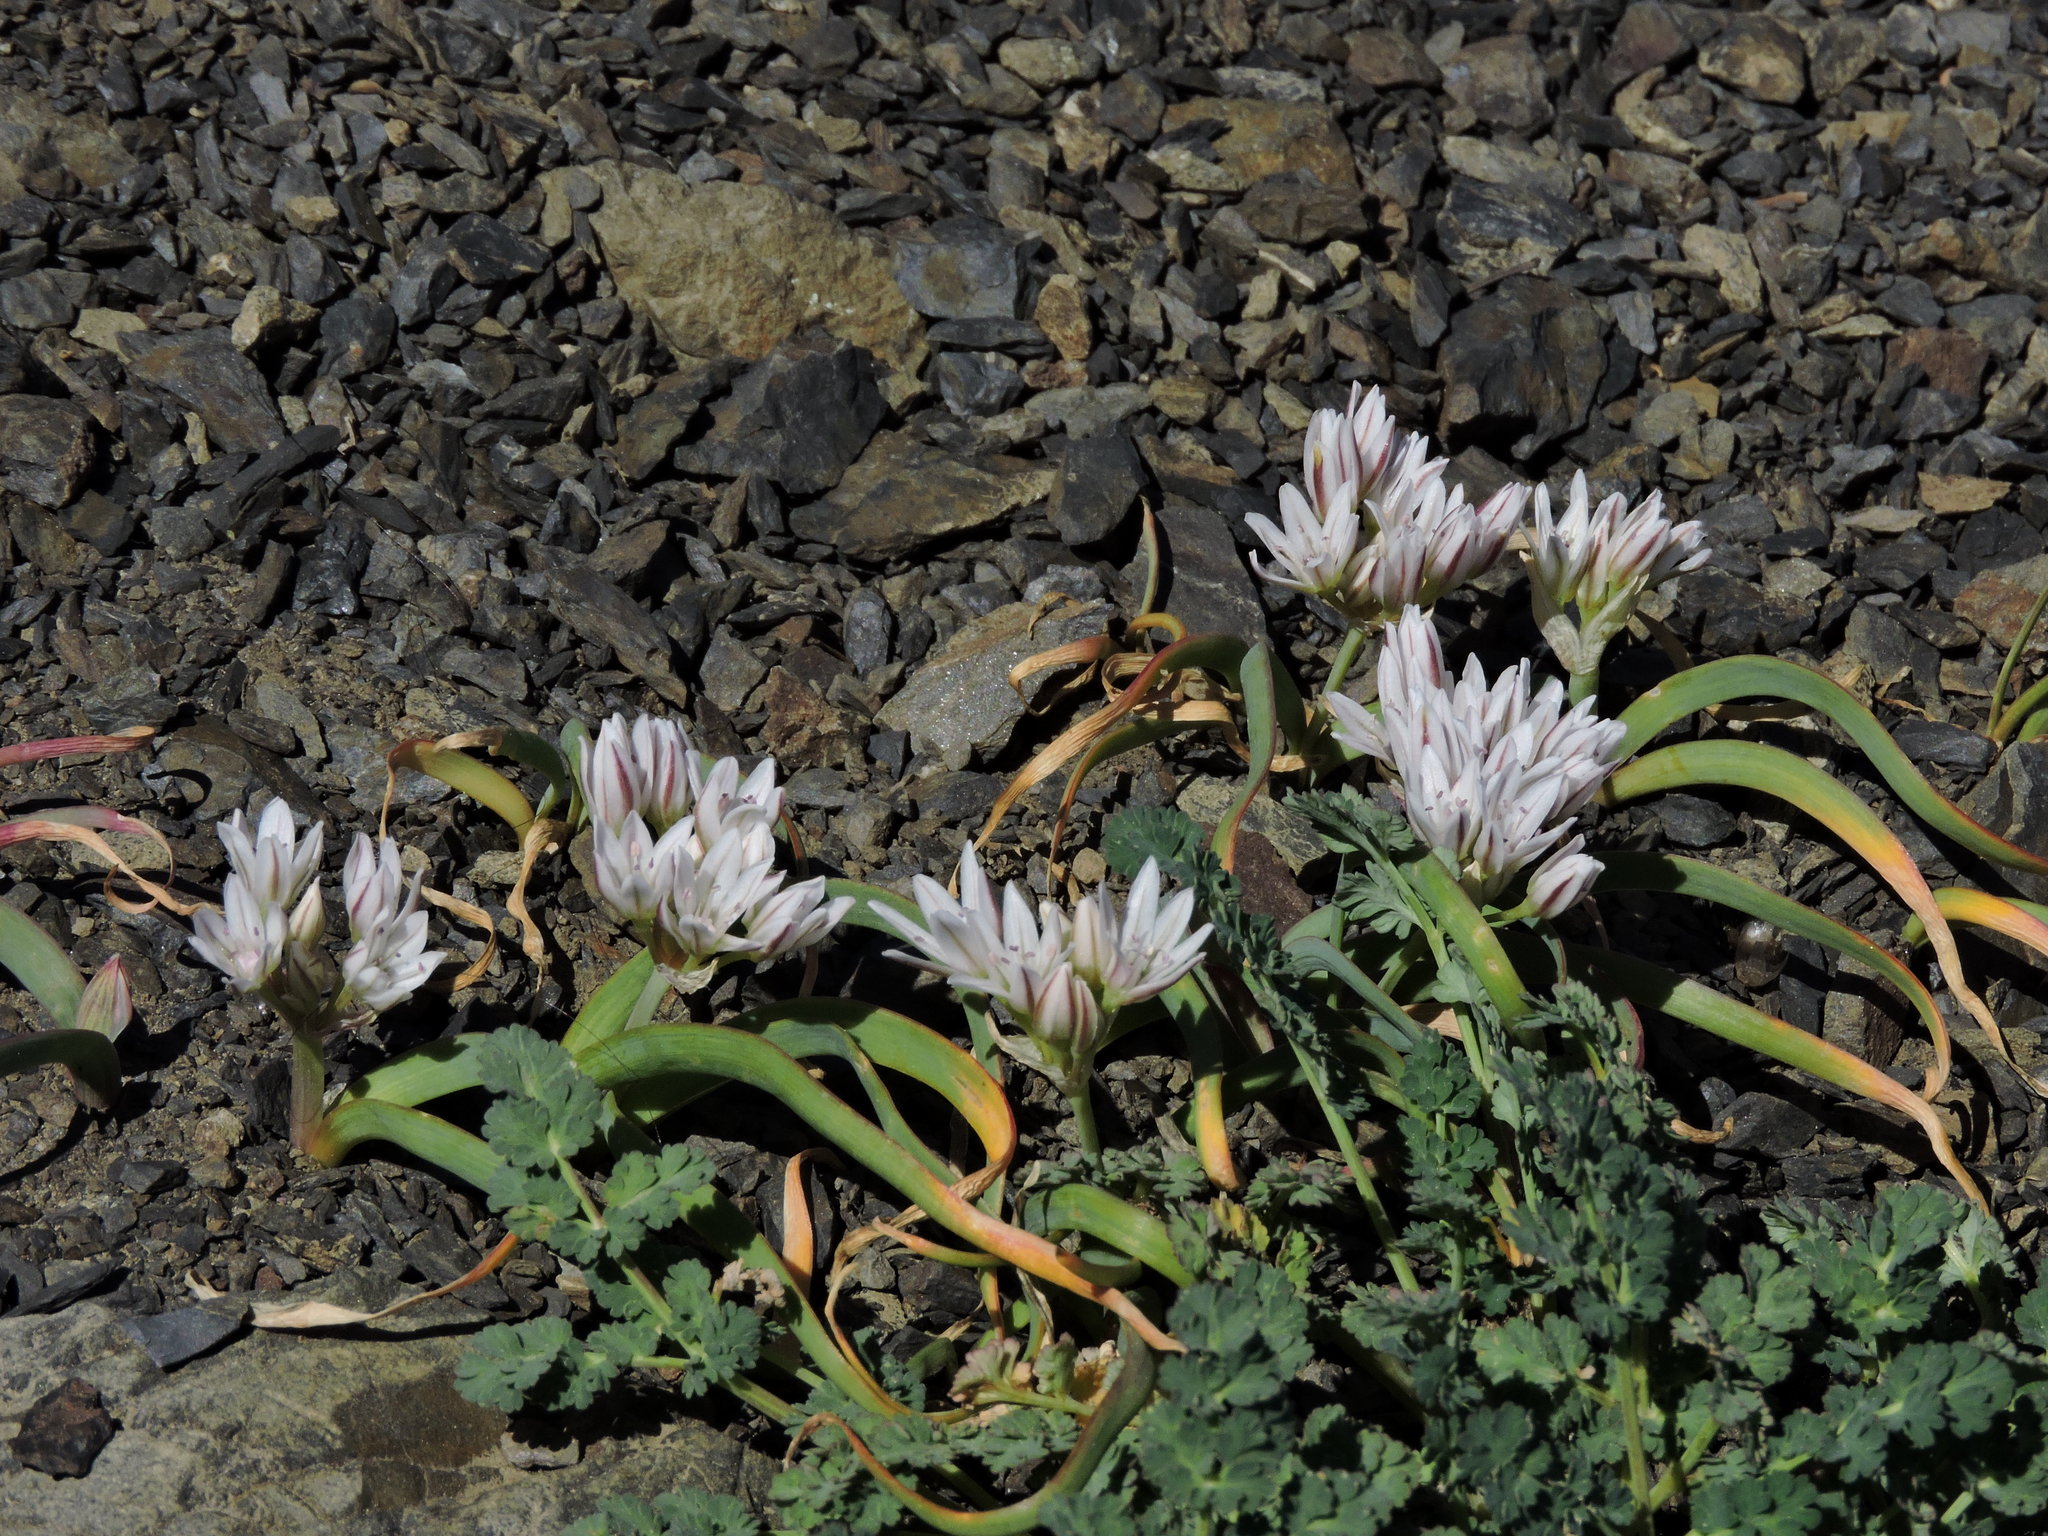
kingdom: Plantae
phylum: Tracheophyta
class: Liliopsida
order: Asparagales
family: Amaryllidaceae
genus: Allium
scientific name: Allium crenulatum
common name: Olympic onion
